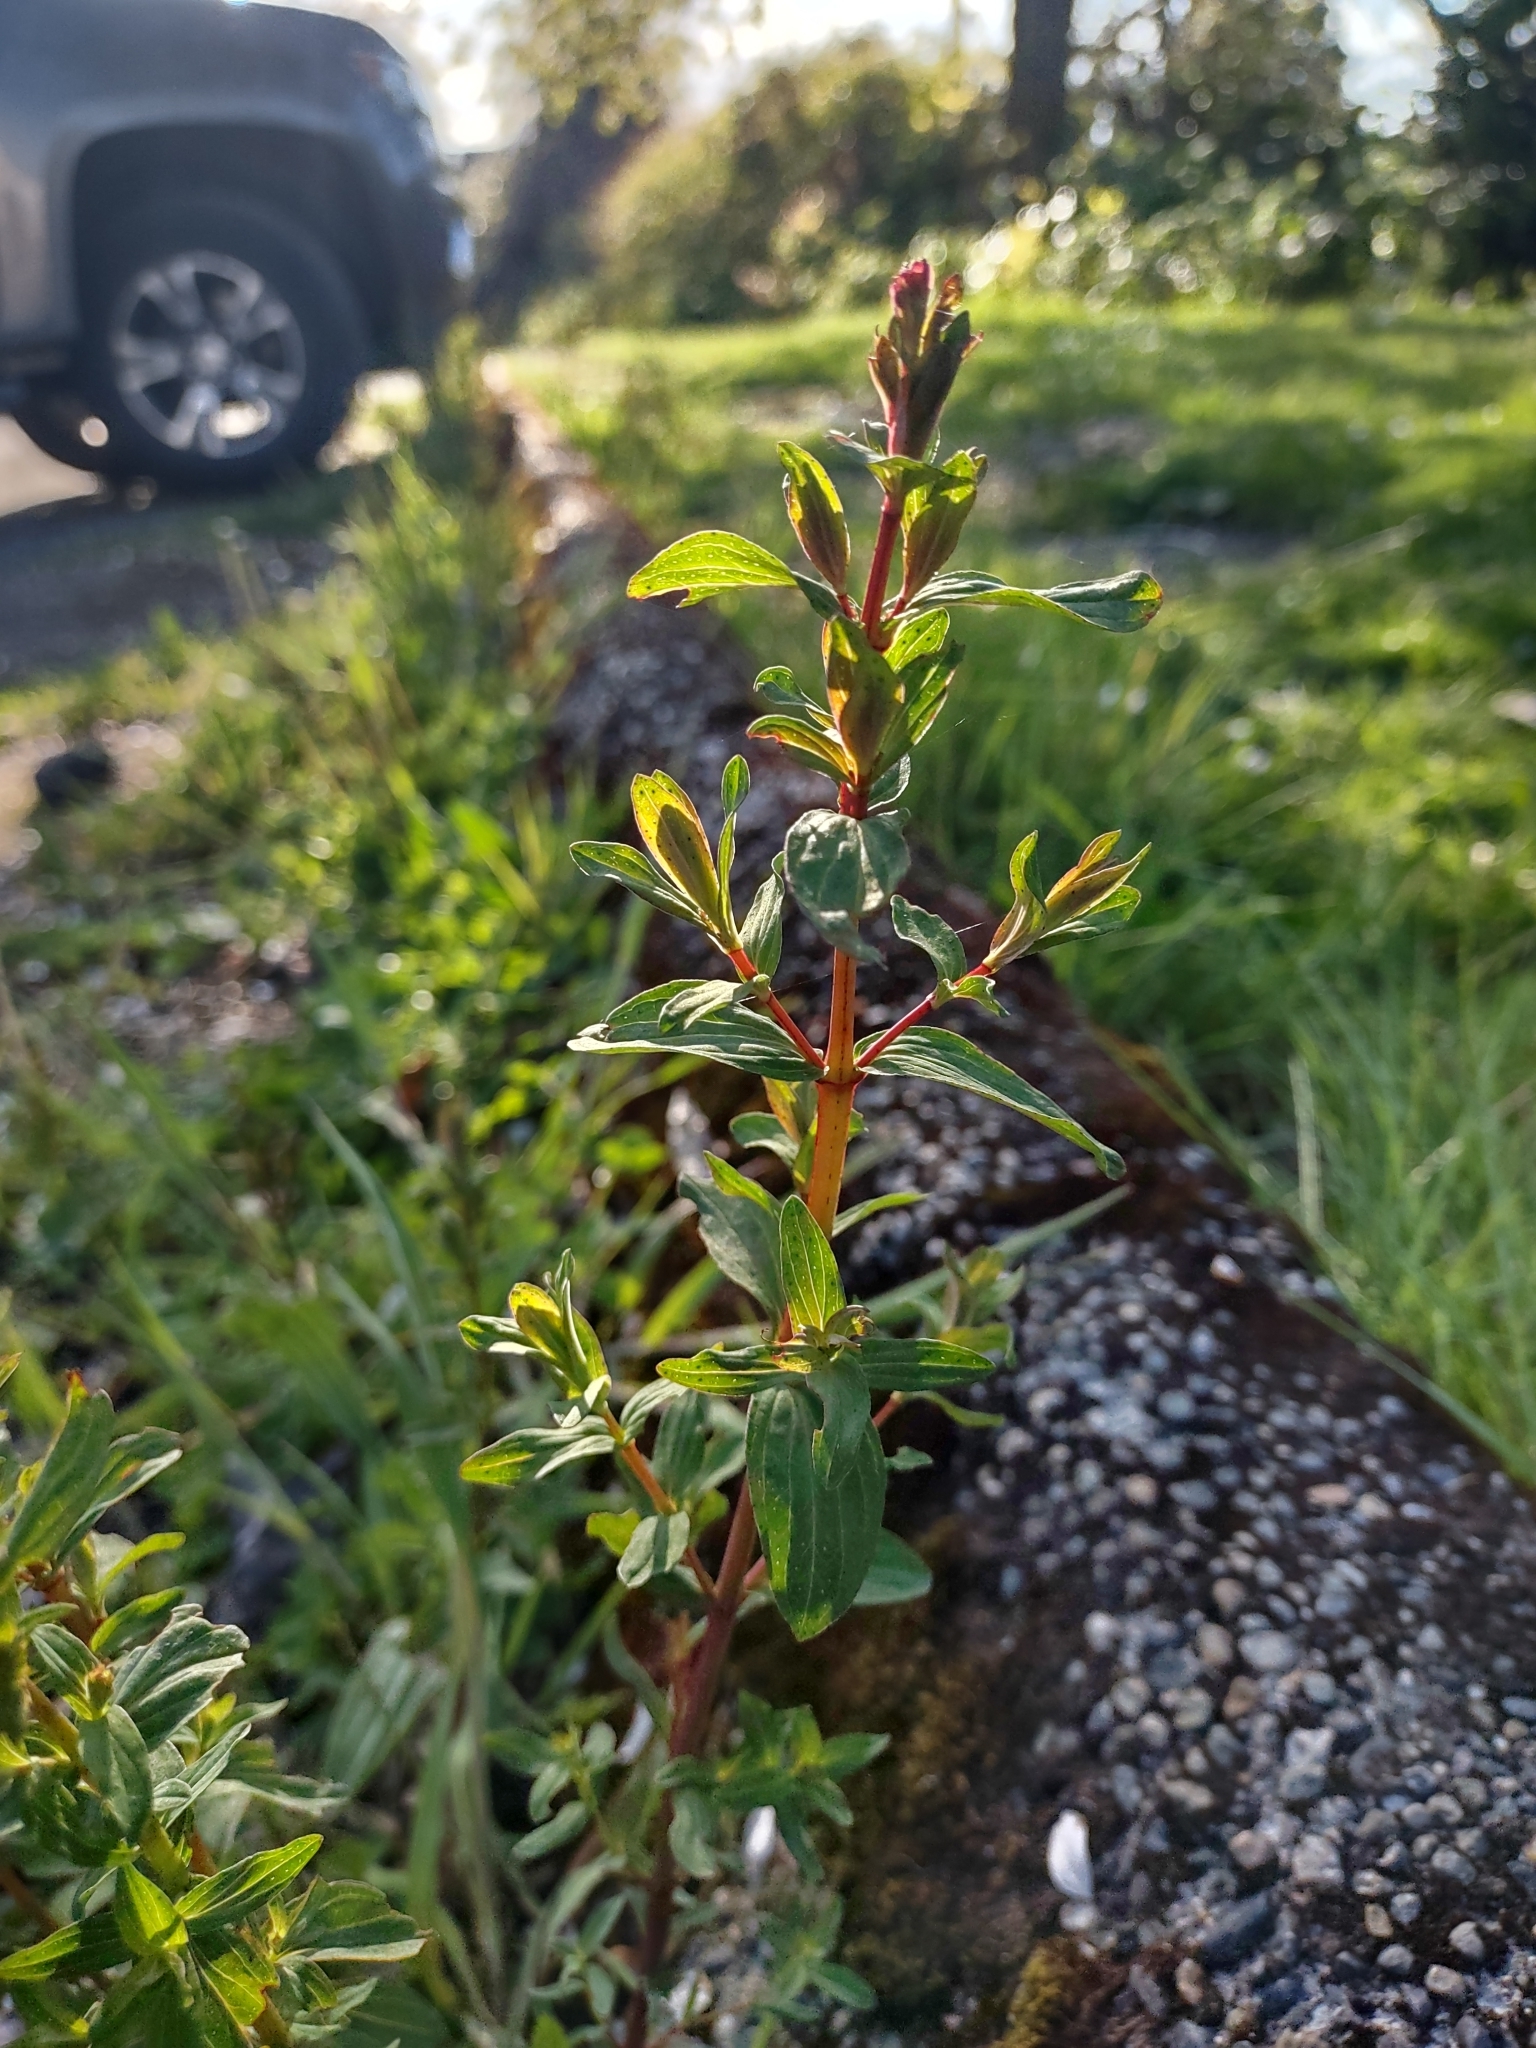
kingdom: Plantae
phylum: Tracheophyta
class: Magnoliopsida
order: Malpighiales
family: Hypericaceae
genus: Hypericum
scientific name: Hypericum perforatum
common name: Common st. johnswort
